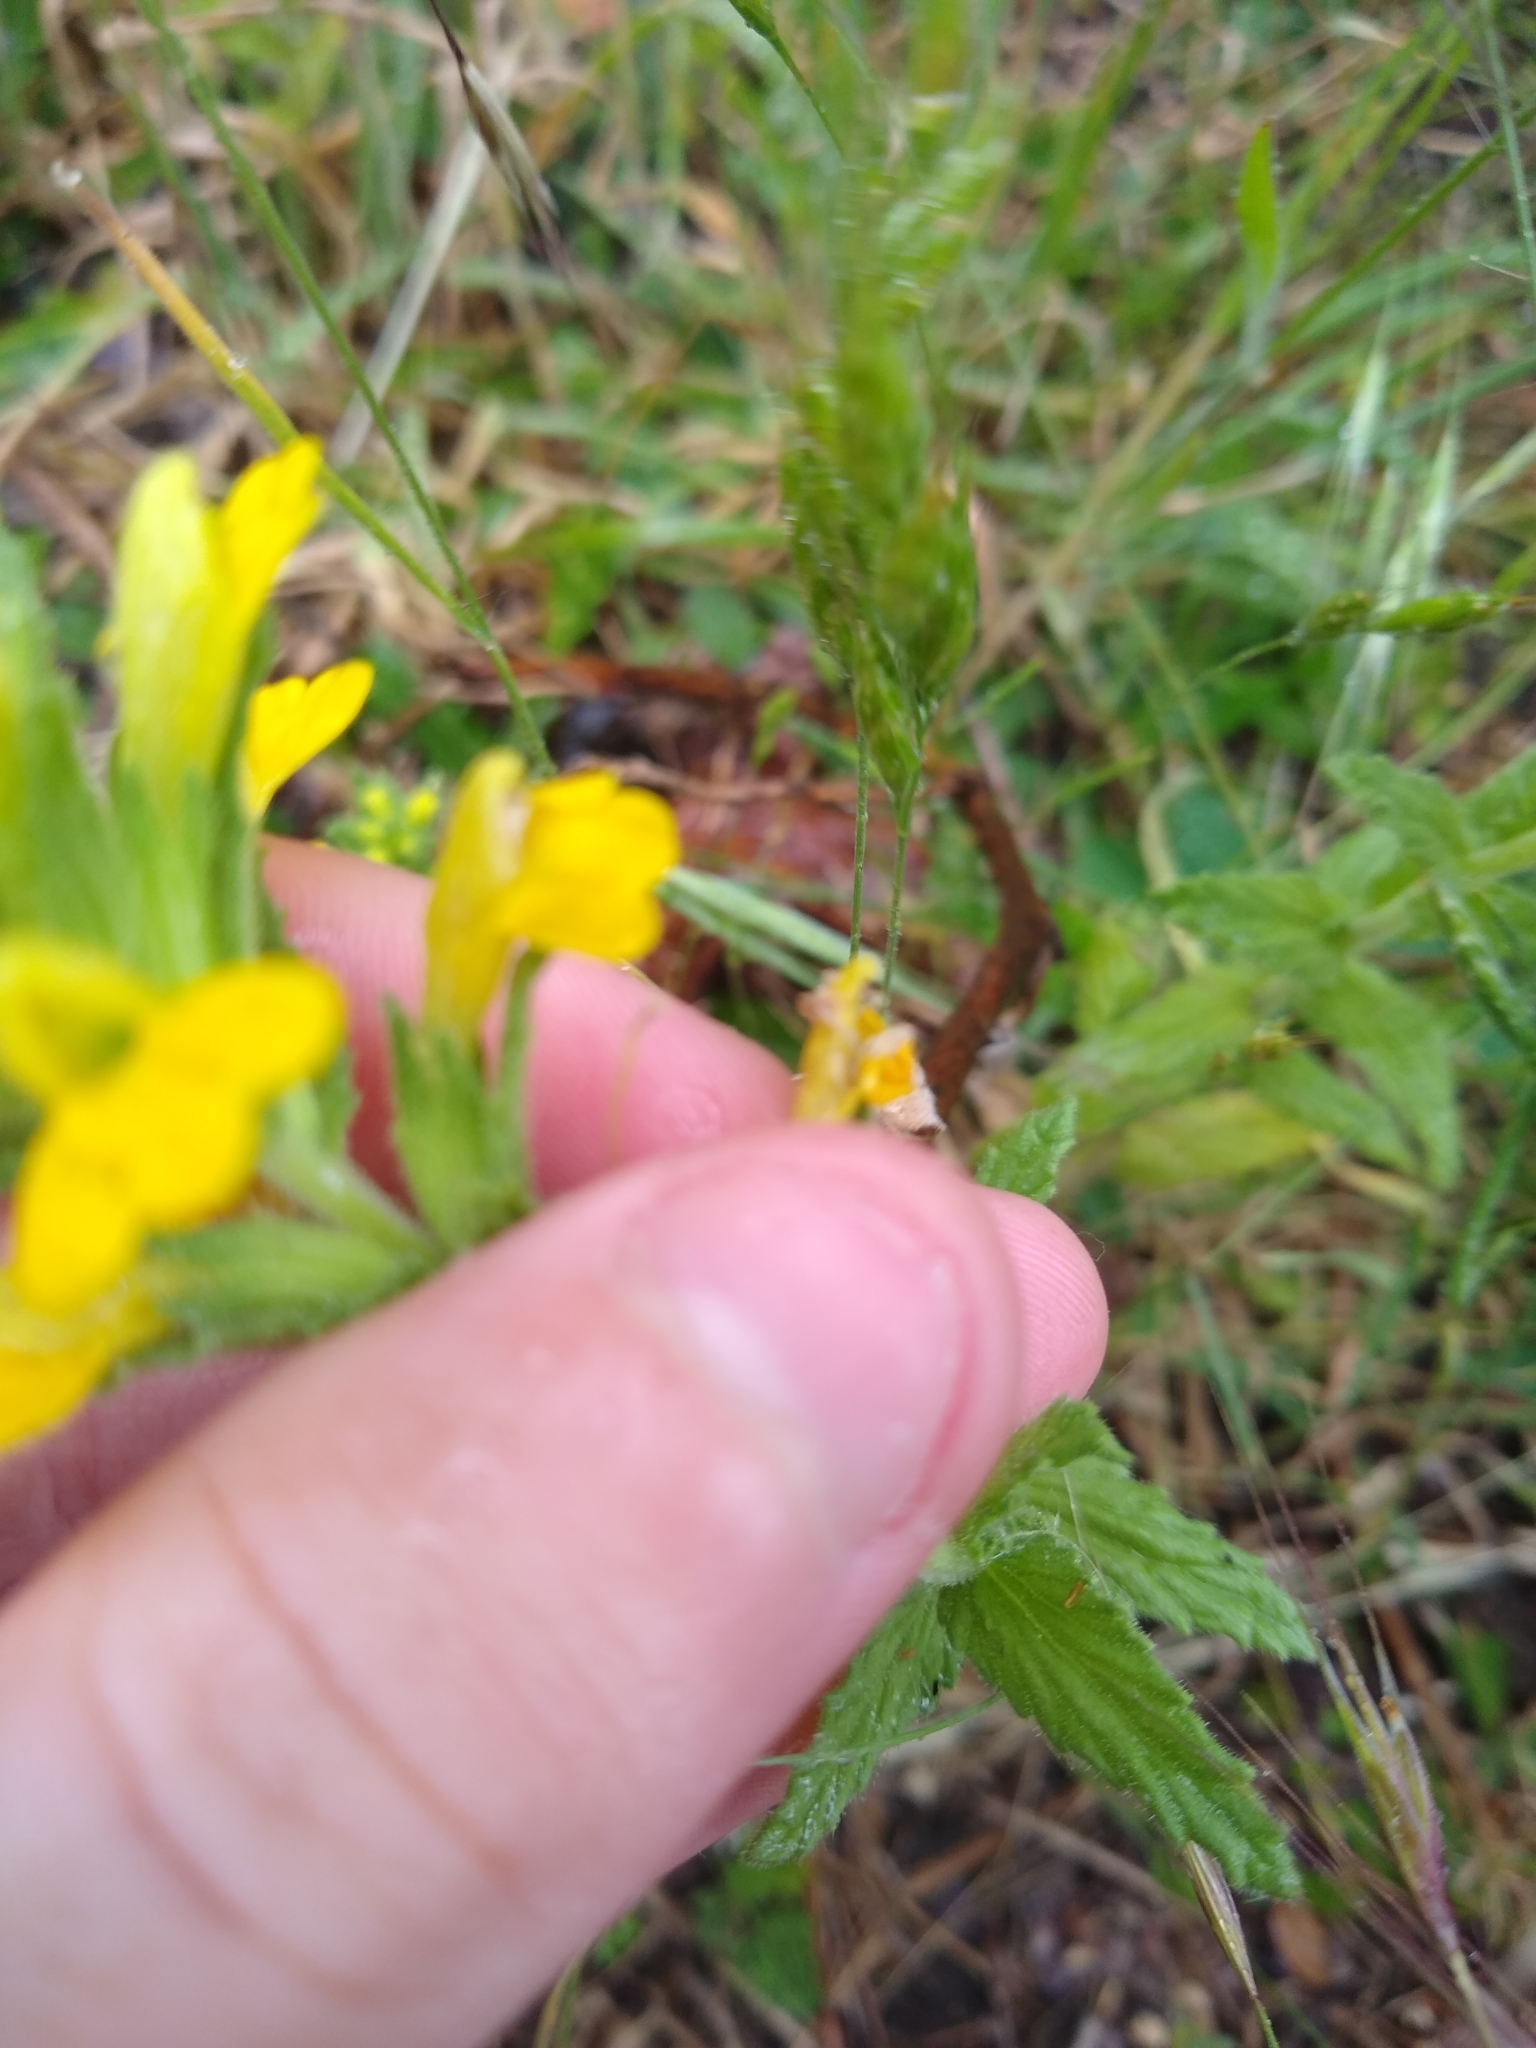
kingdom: Plantae
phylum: Tracheophyta
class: Magnoliopsida
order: Lamiales
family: Orobanchaceae
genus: Bellardia
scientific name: Bellardia viscosa
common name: Sticky parentucellia
